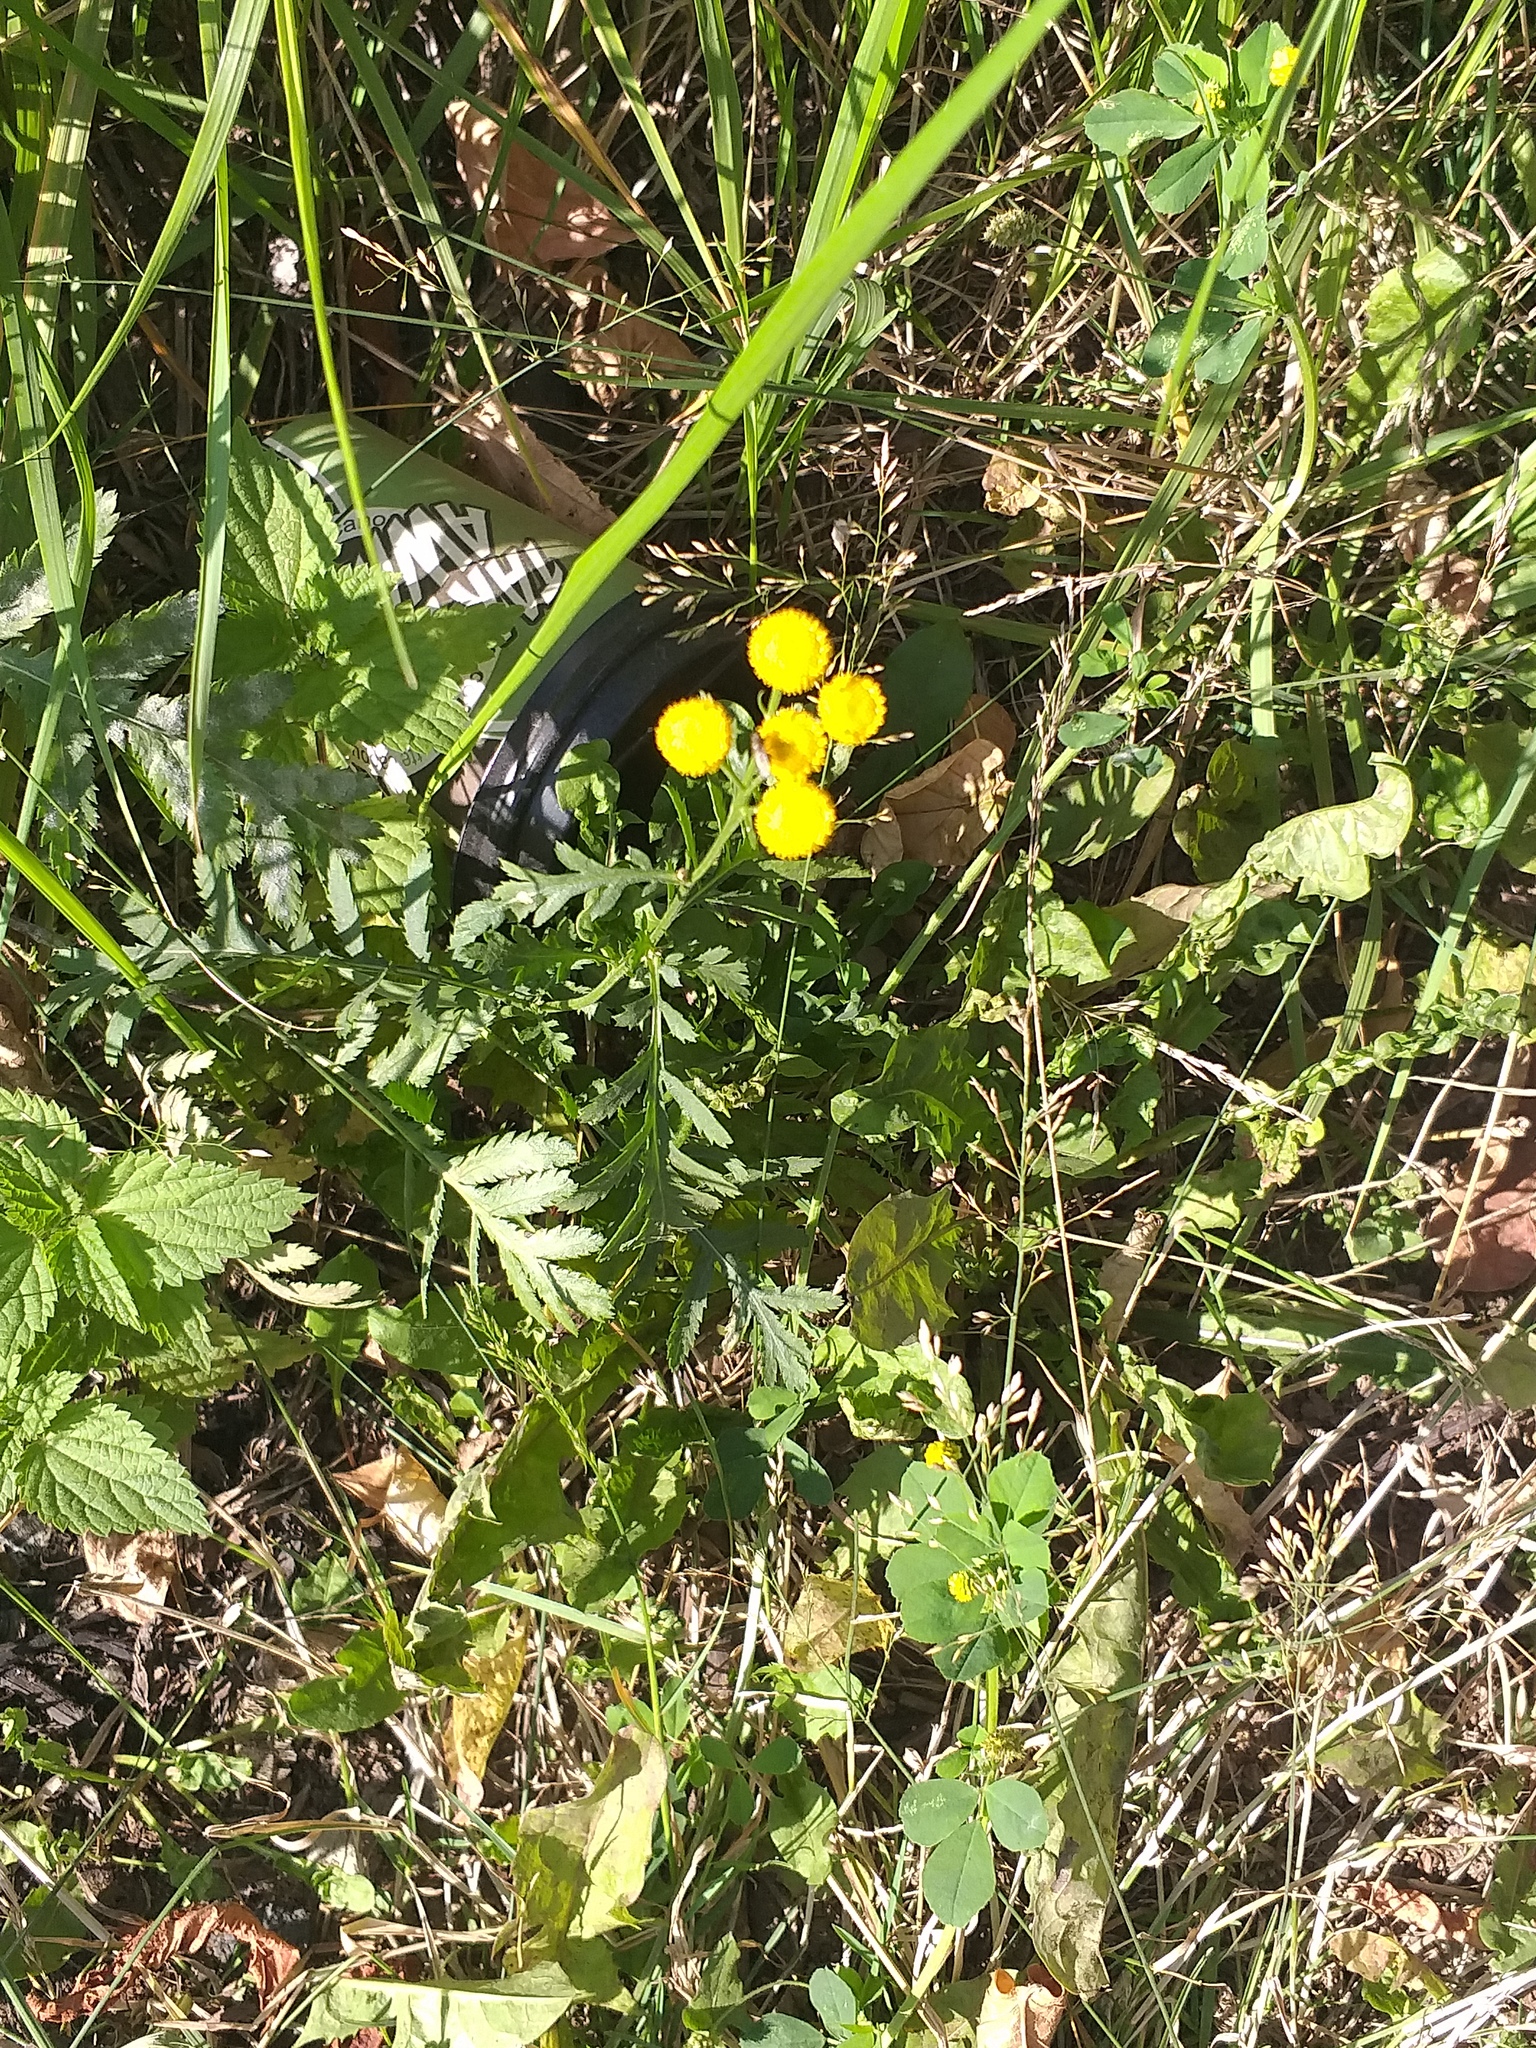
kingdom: Plantae
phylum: Tracheophyta
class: Magnoliopsida
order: Asterales
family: Asteraceae
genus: Tanacetum
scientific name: Tanacetum vulgare
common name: Common tansy
